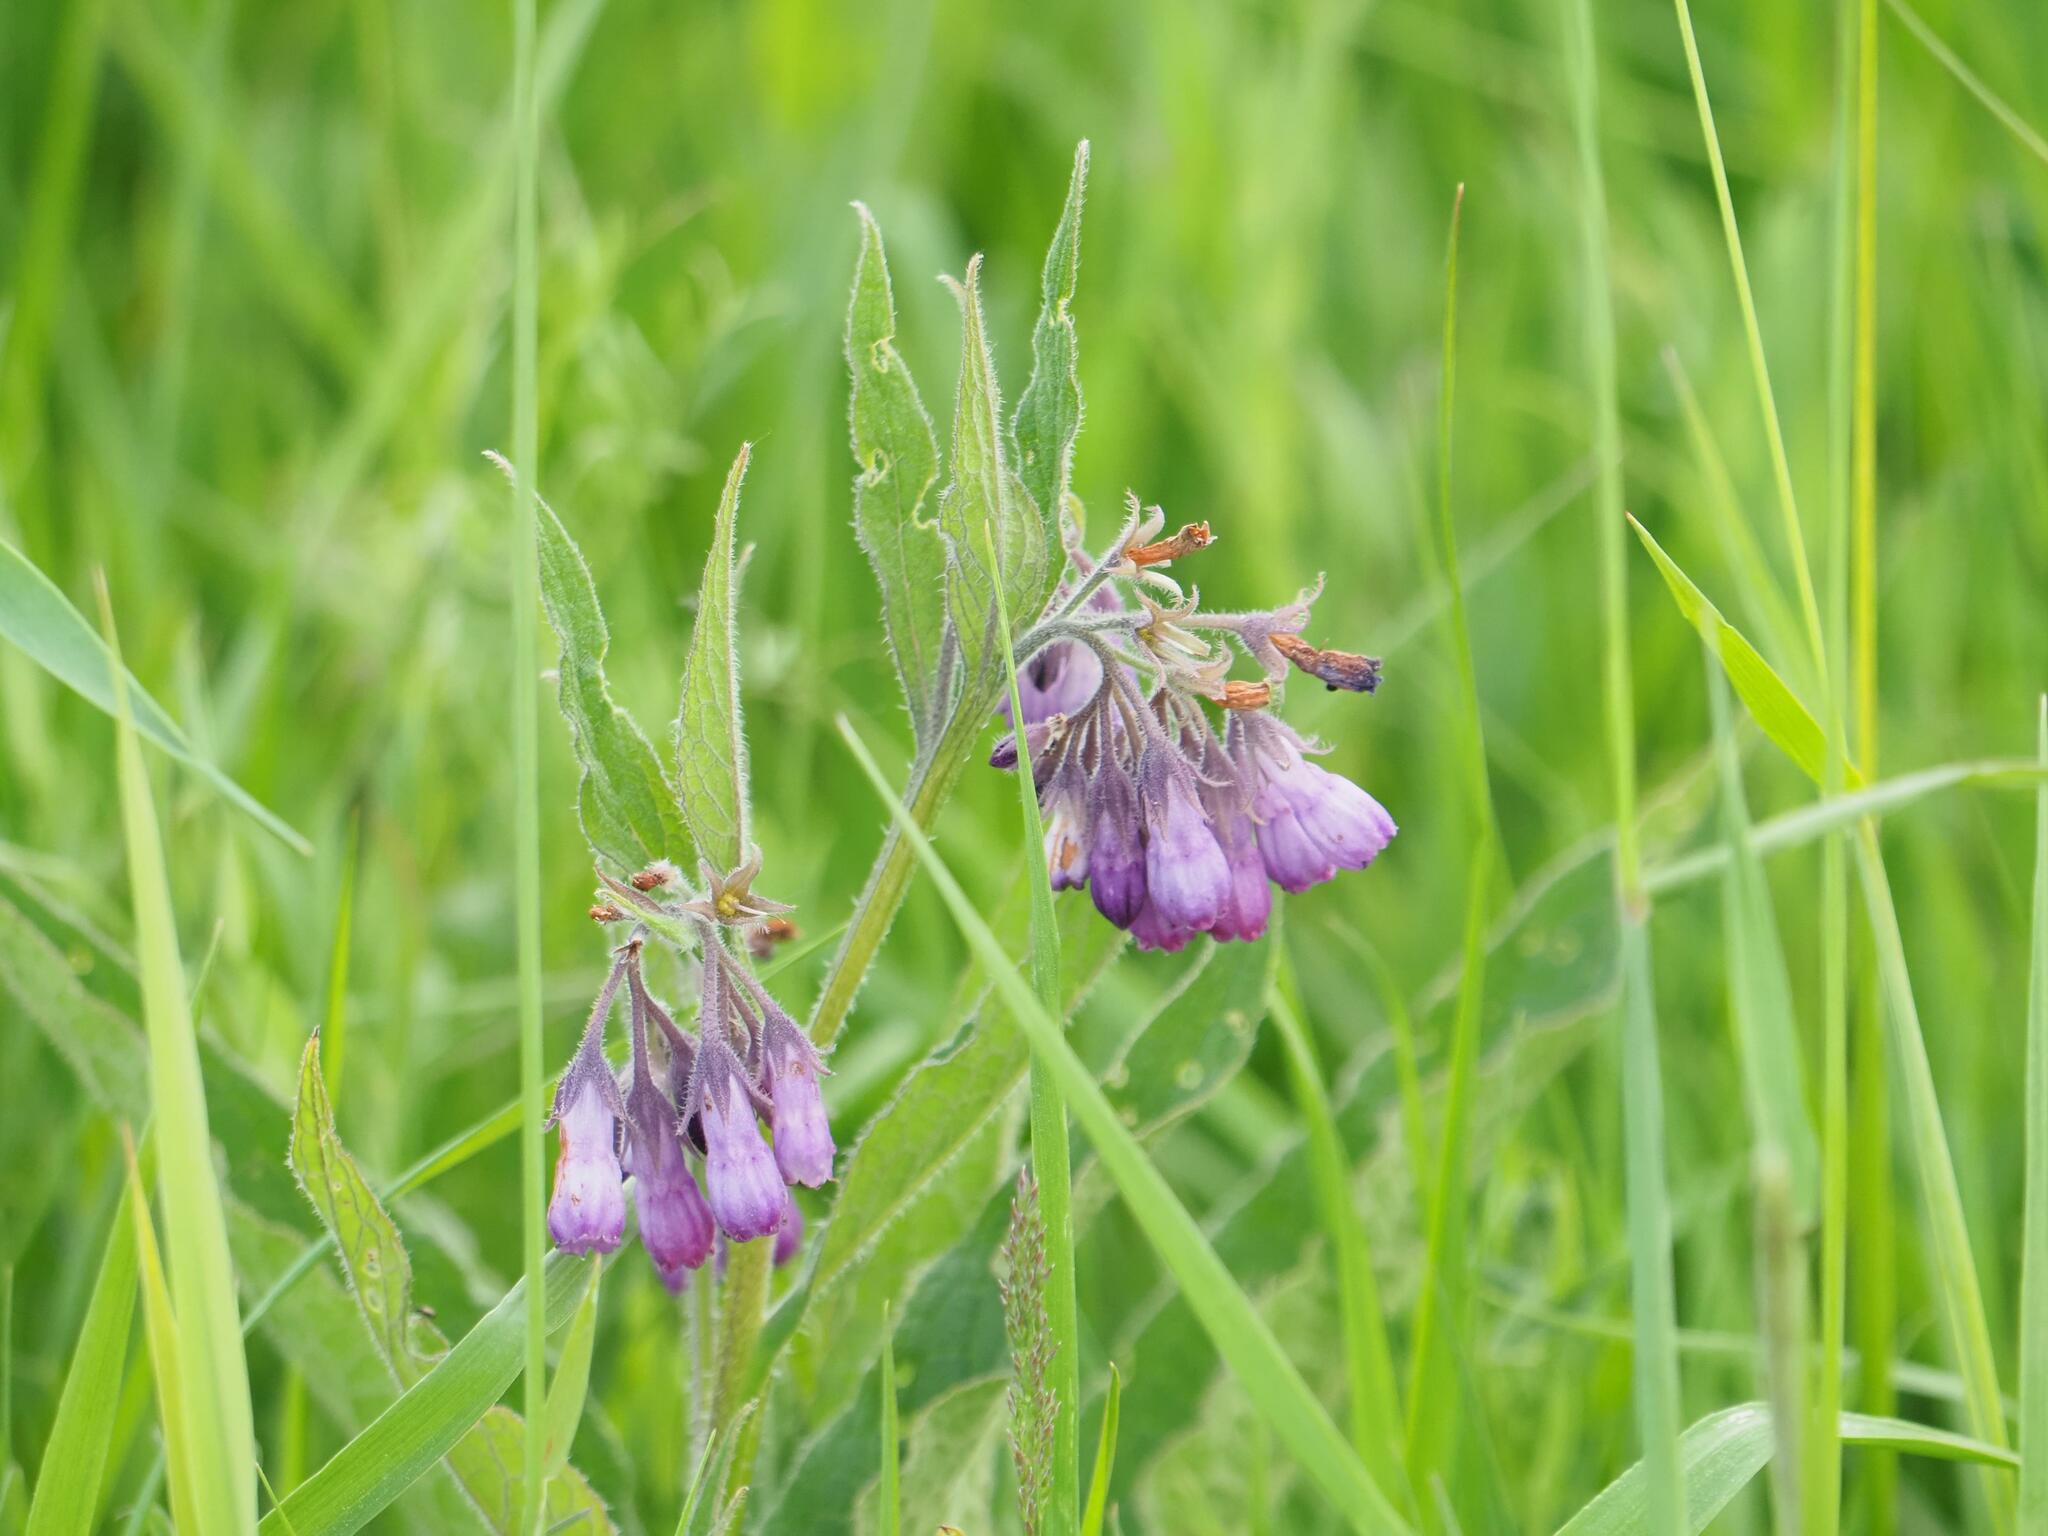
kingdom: Plantae
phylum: Tracheophyta
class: Magnoliopsida
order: Boraginales
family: Boraginaceae
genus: Symphytum
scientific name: Symphytum officinale
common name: Common comfrey
